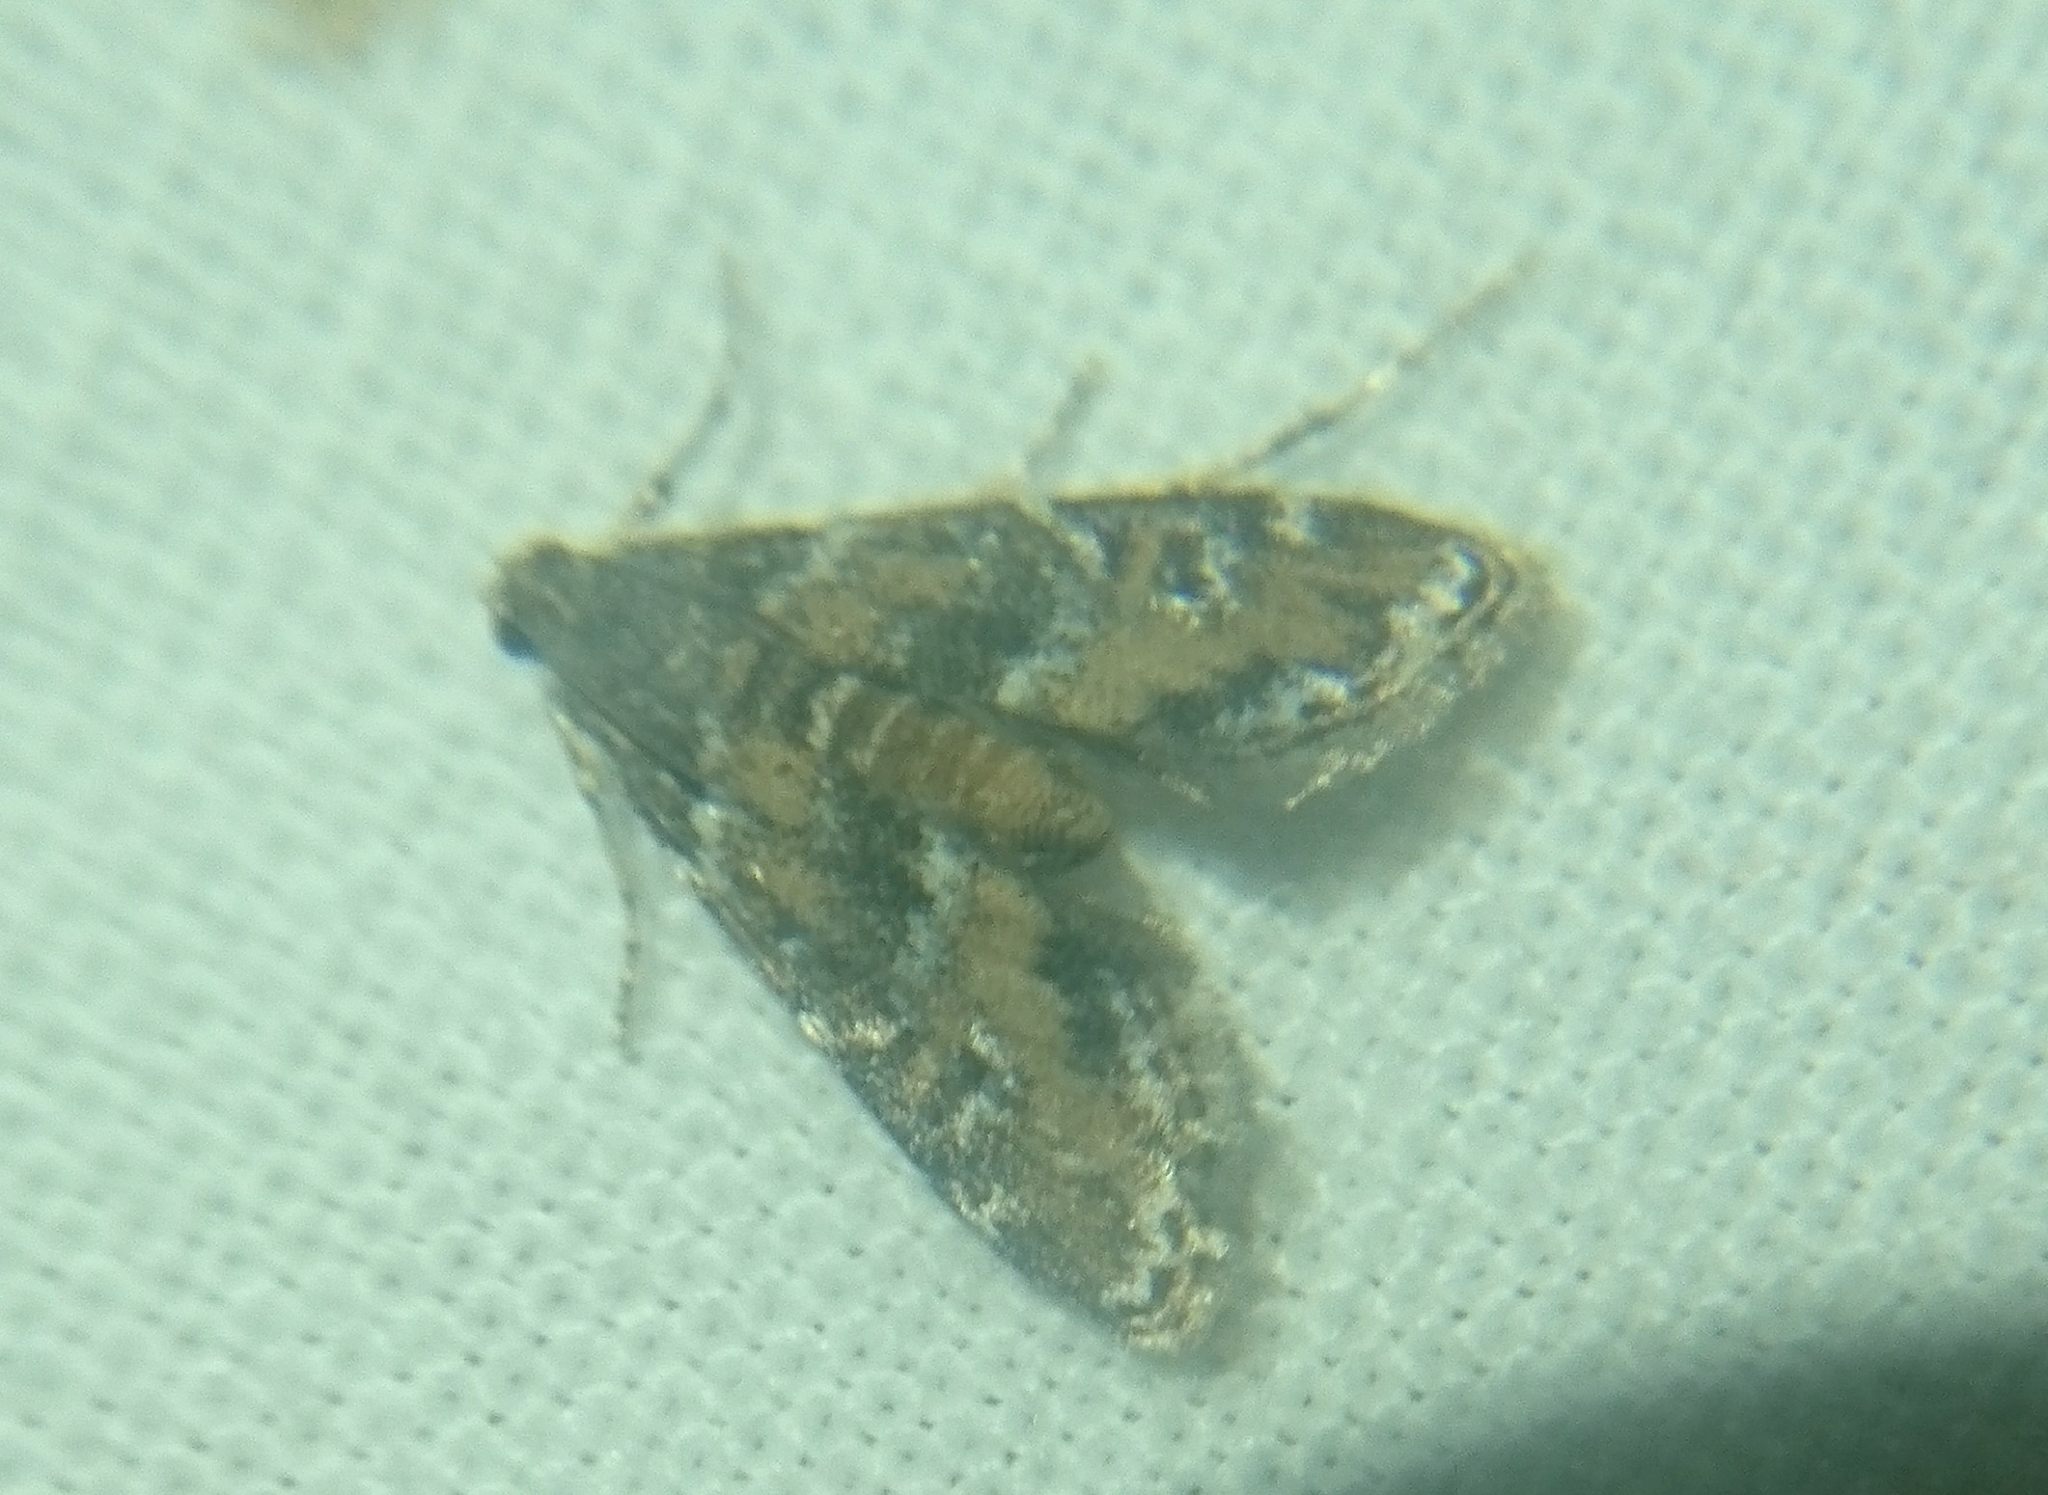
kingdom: Animalia
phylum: Arthropoda
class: Insecta
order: Lepidoptera
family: Crambidae
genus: Elophila
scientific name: Elophila obliteralis
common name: Waterlily leafcutter moth
